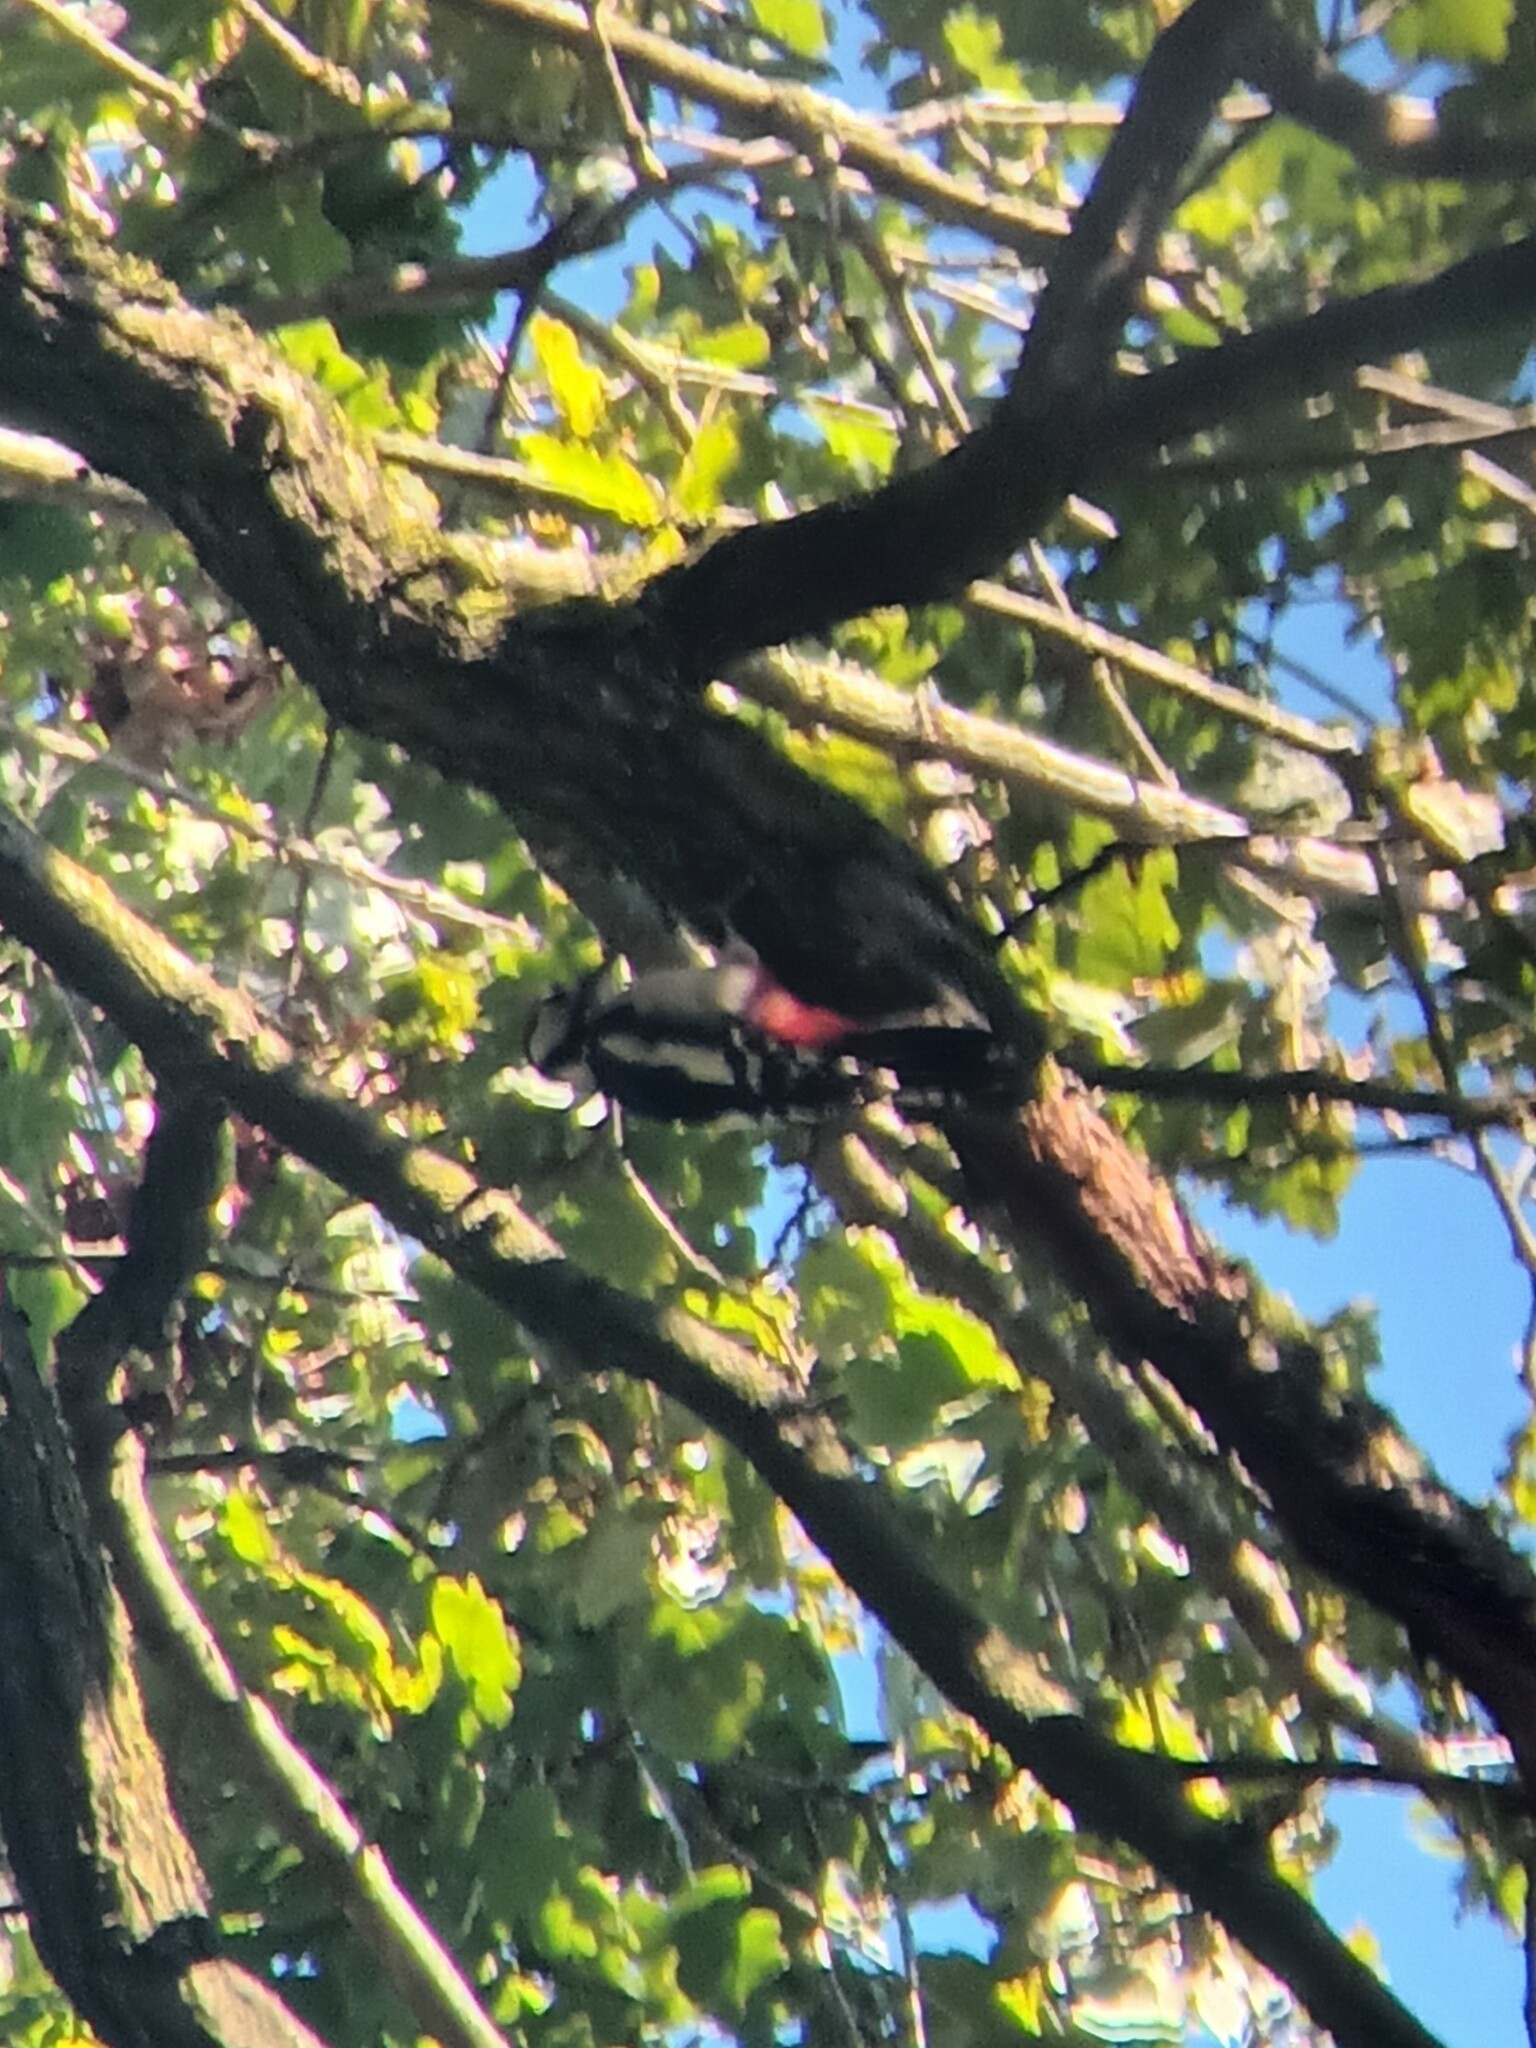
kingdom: Animalia
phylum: Chordata
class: Aves
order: Piciformes
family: Picidae
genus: Dendrocopos
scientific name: Dendrocopos major
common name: Great spotted woodpecker
